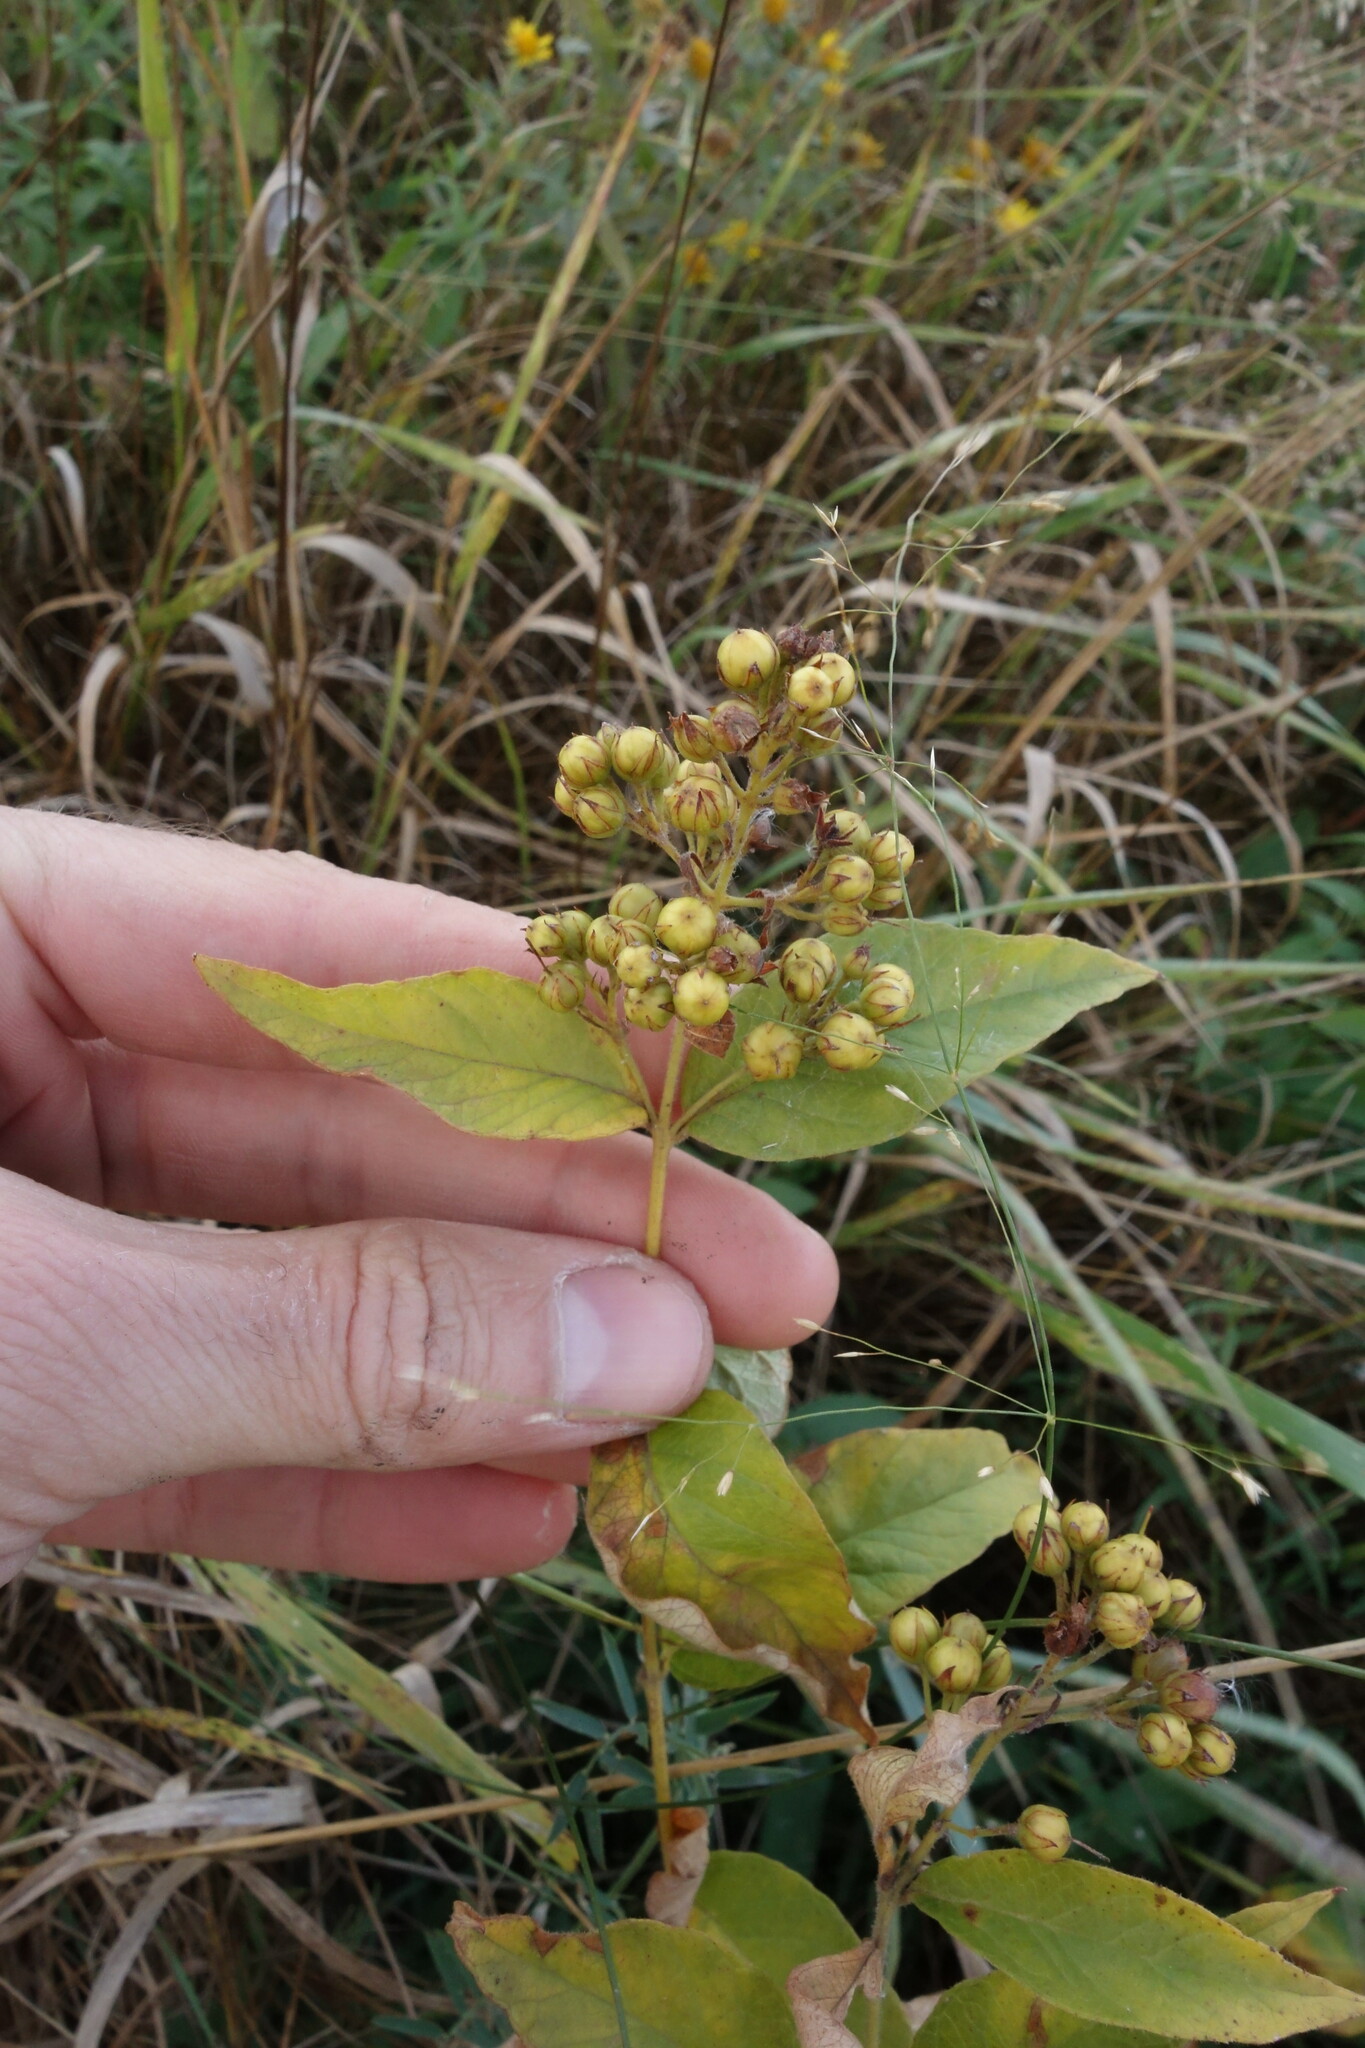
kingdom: Plantae
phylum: Tracheophyta
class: Magnoliopsida
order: Ericales
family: Primulaceae
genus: Lysimachia
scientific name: Lysimachia vulgaris
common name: Yellow loosestrife
